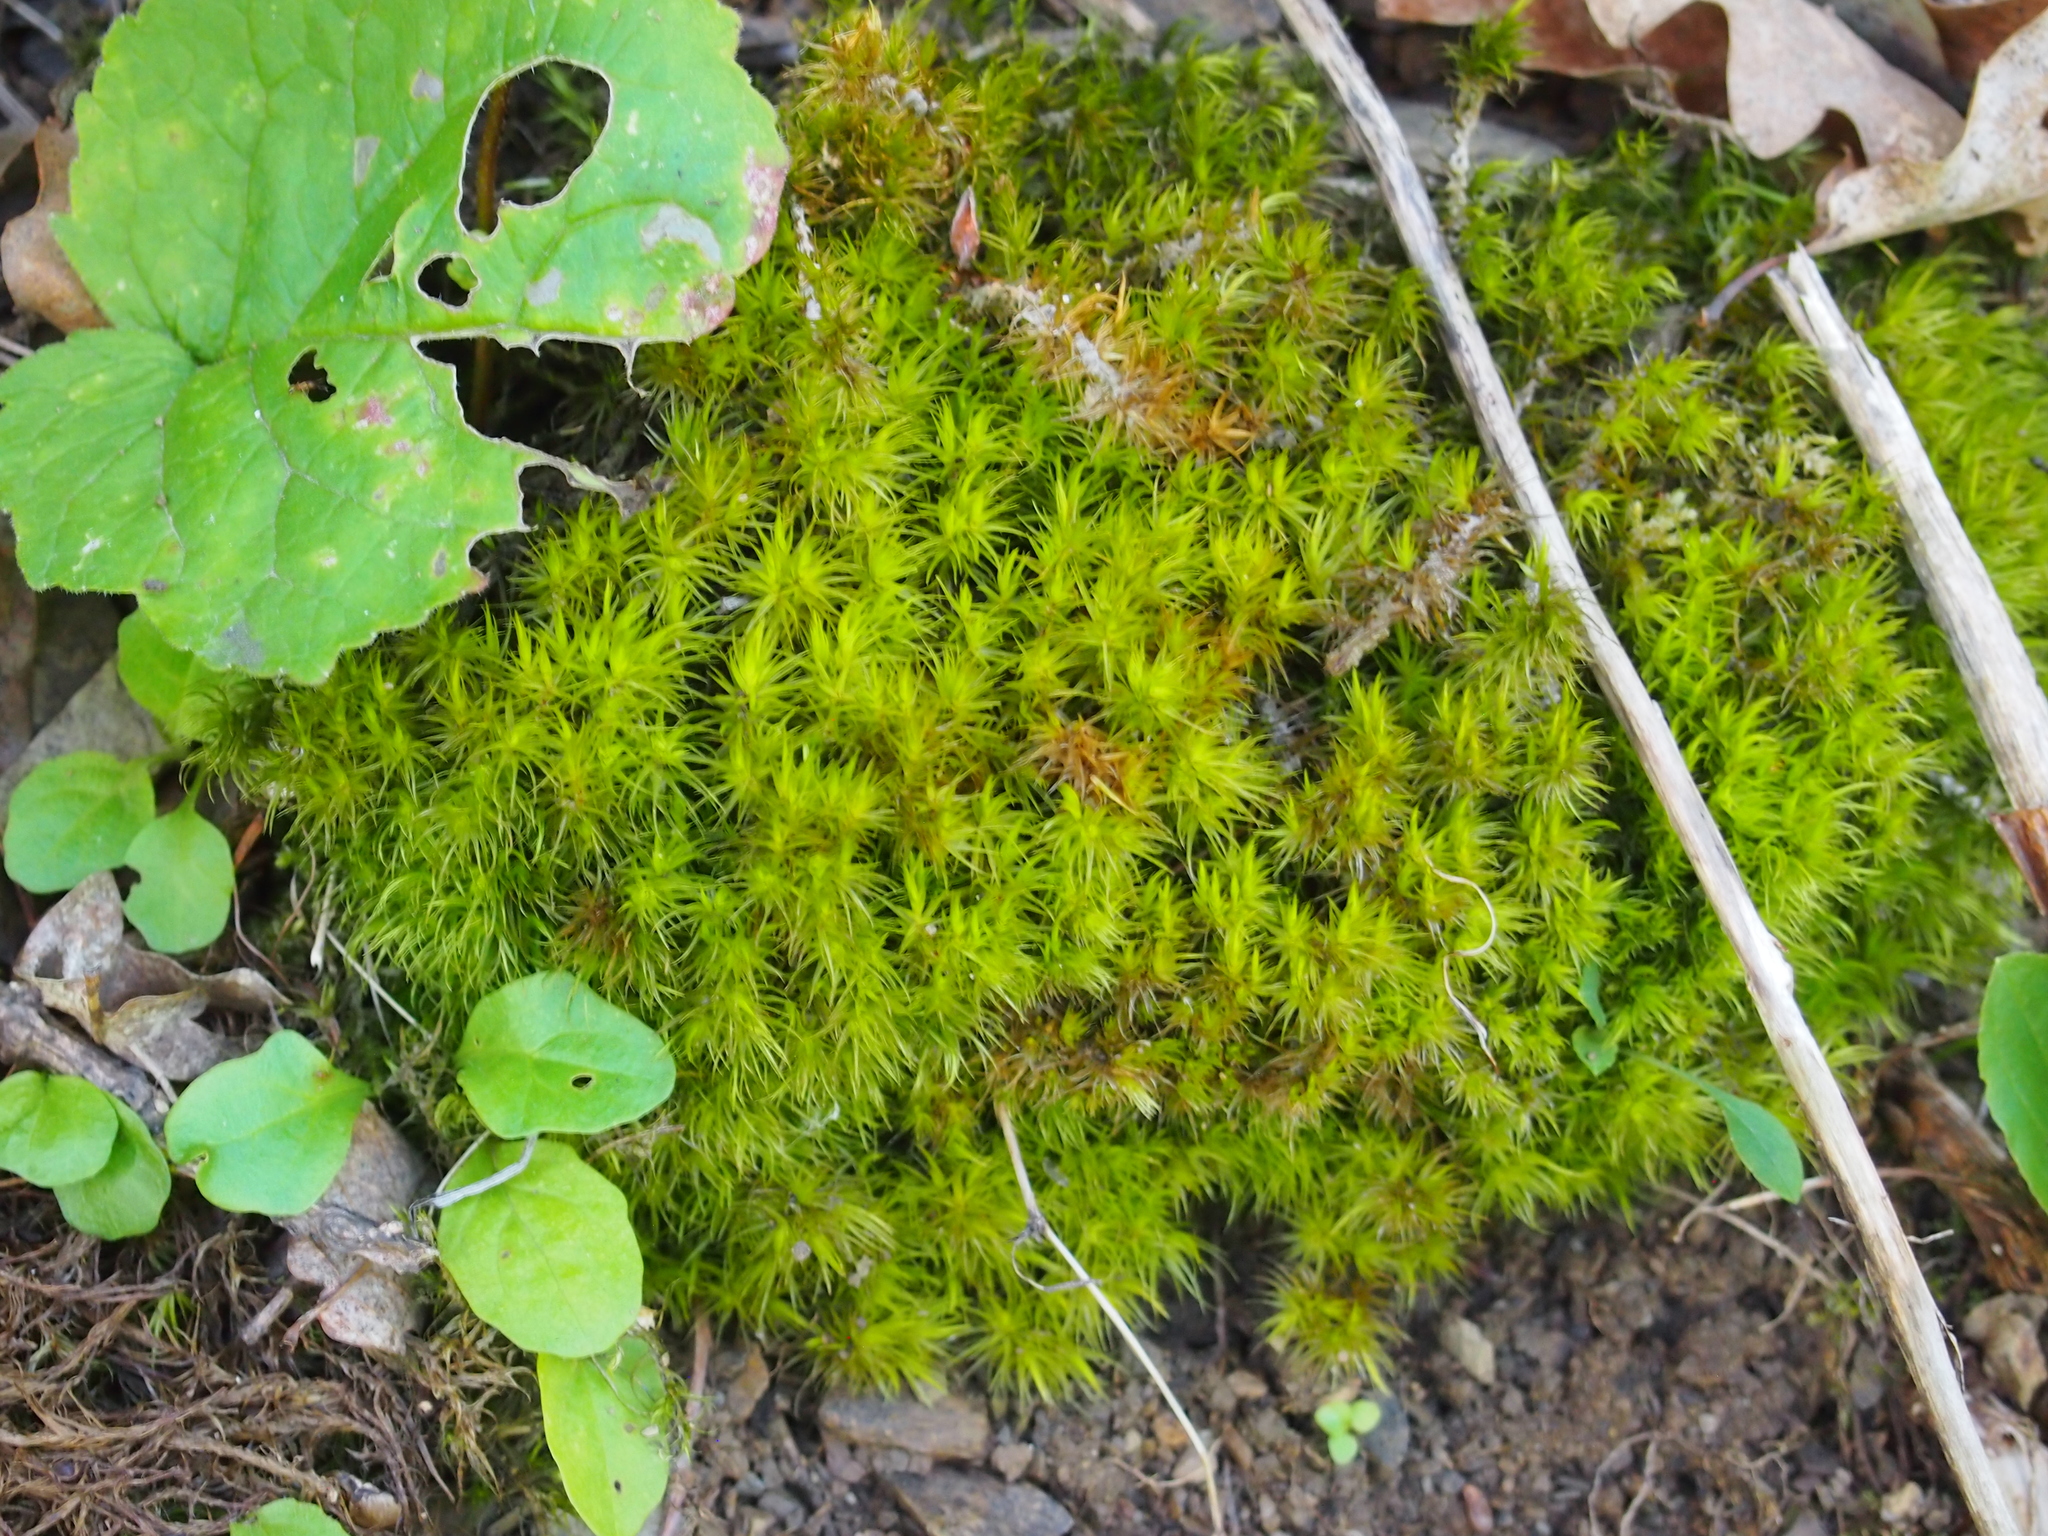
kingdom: Plantae
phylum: Bryophyta
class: Bryopsida
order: Dicranales
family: Dicranaceae
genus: Dicranum
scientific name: Dicranum scoparium
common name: Broom fork-moss
